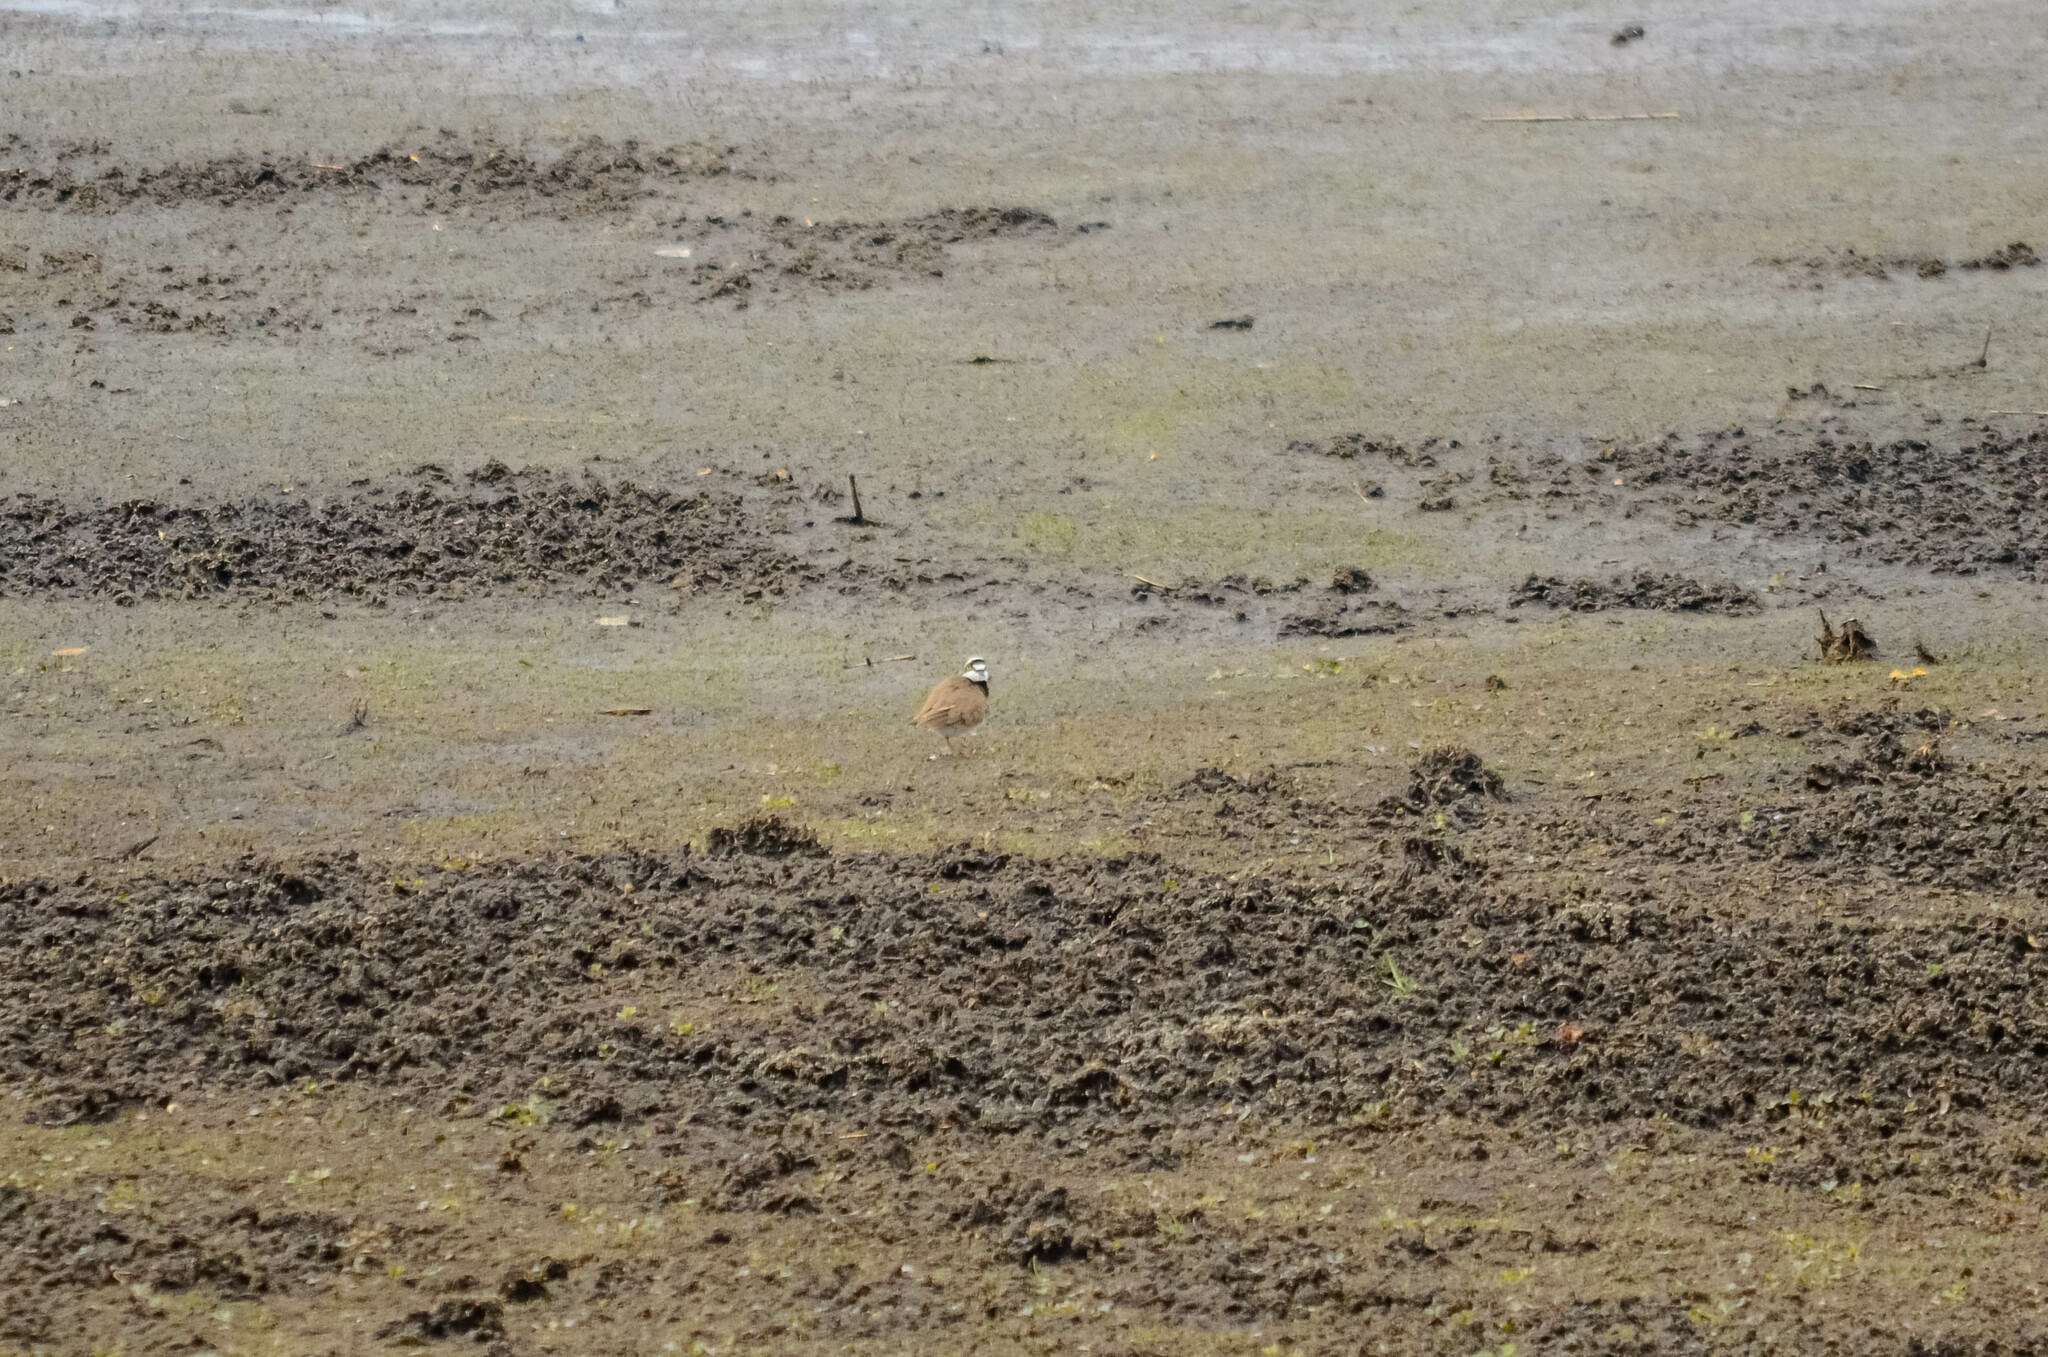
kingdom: Animalia
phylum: Chordata
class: Aves
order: Charadriiformes
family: Charadriidae
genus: Charadrius
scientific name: Charadrius dubius
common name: Little ringed plover
